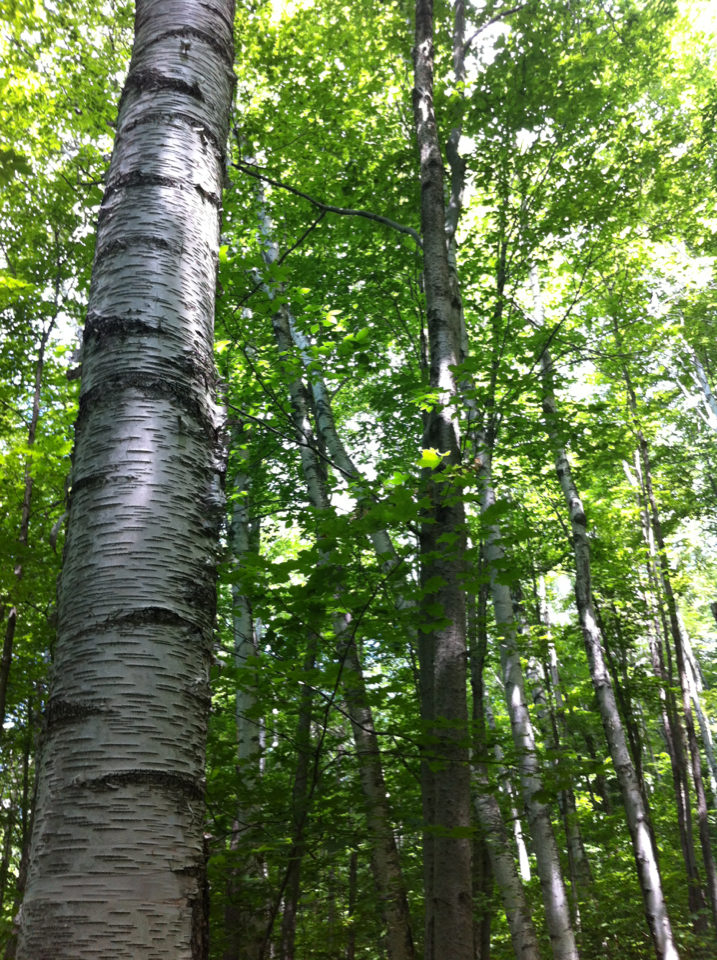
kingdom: Plantae
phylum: Tracheophyta
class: Magnoliopsida
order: Fagales
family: Betulaceae
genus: Betula
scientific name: Betula papyrifera
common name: Paper birch
